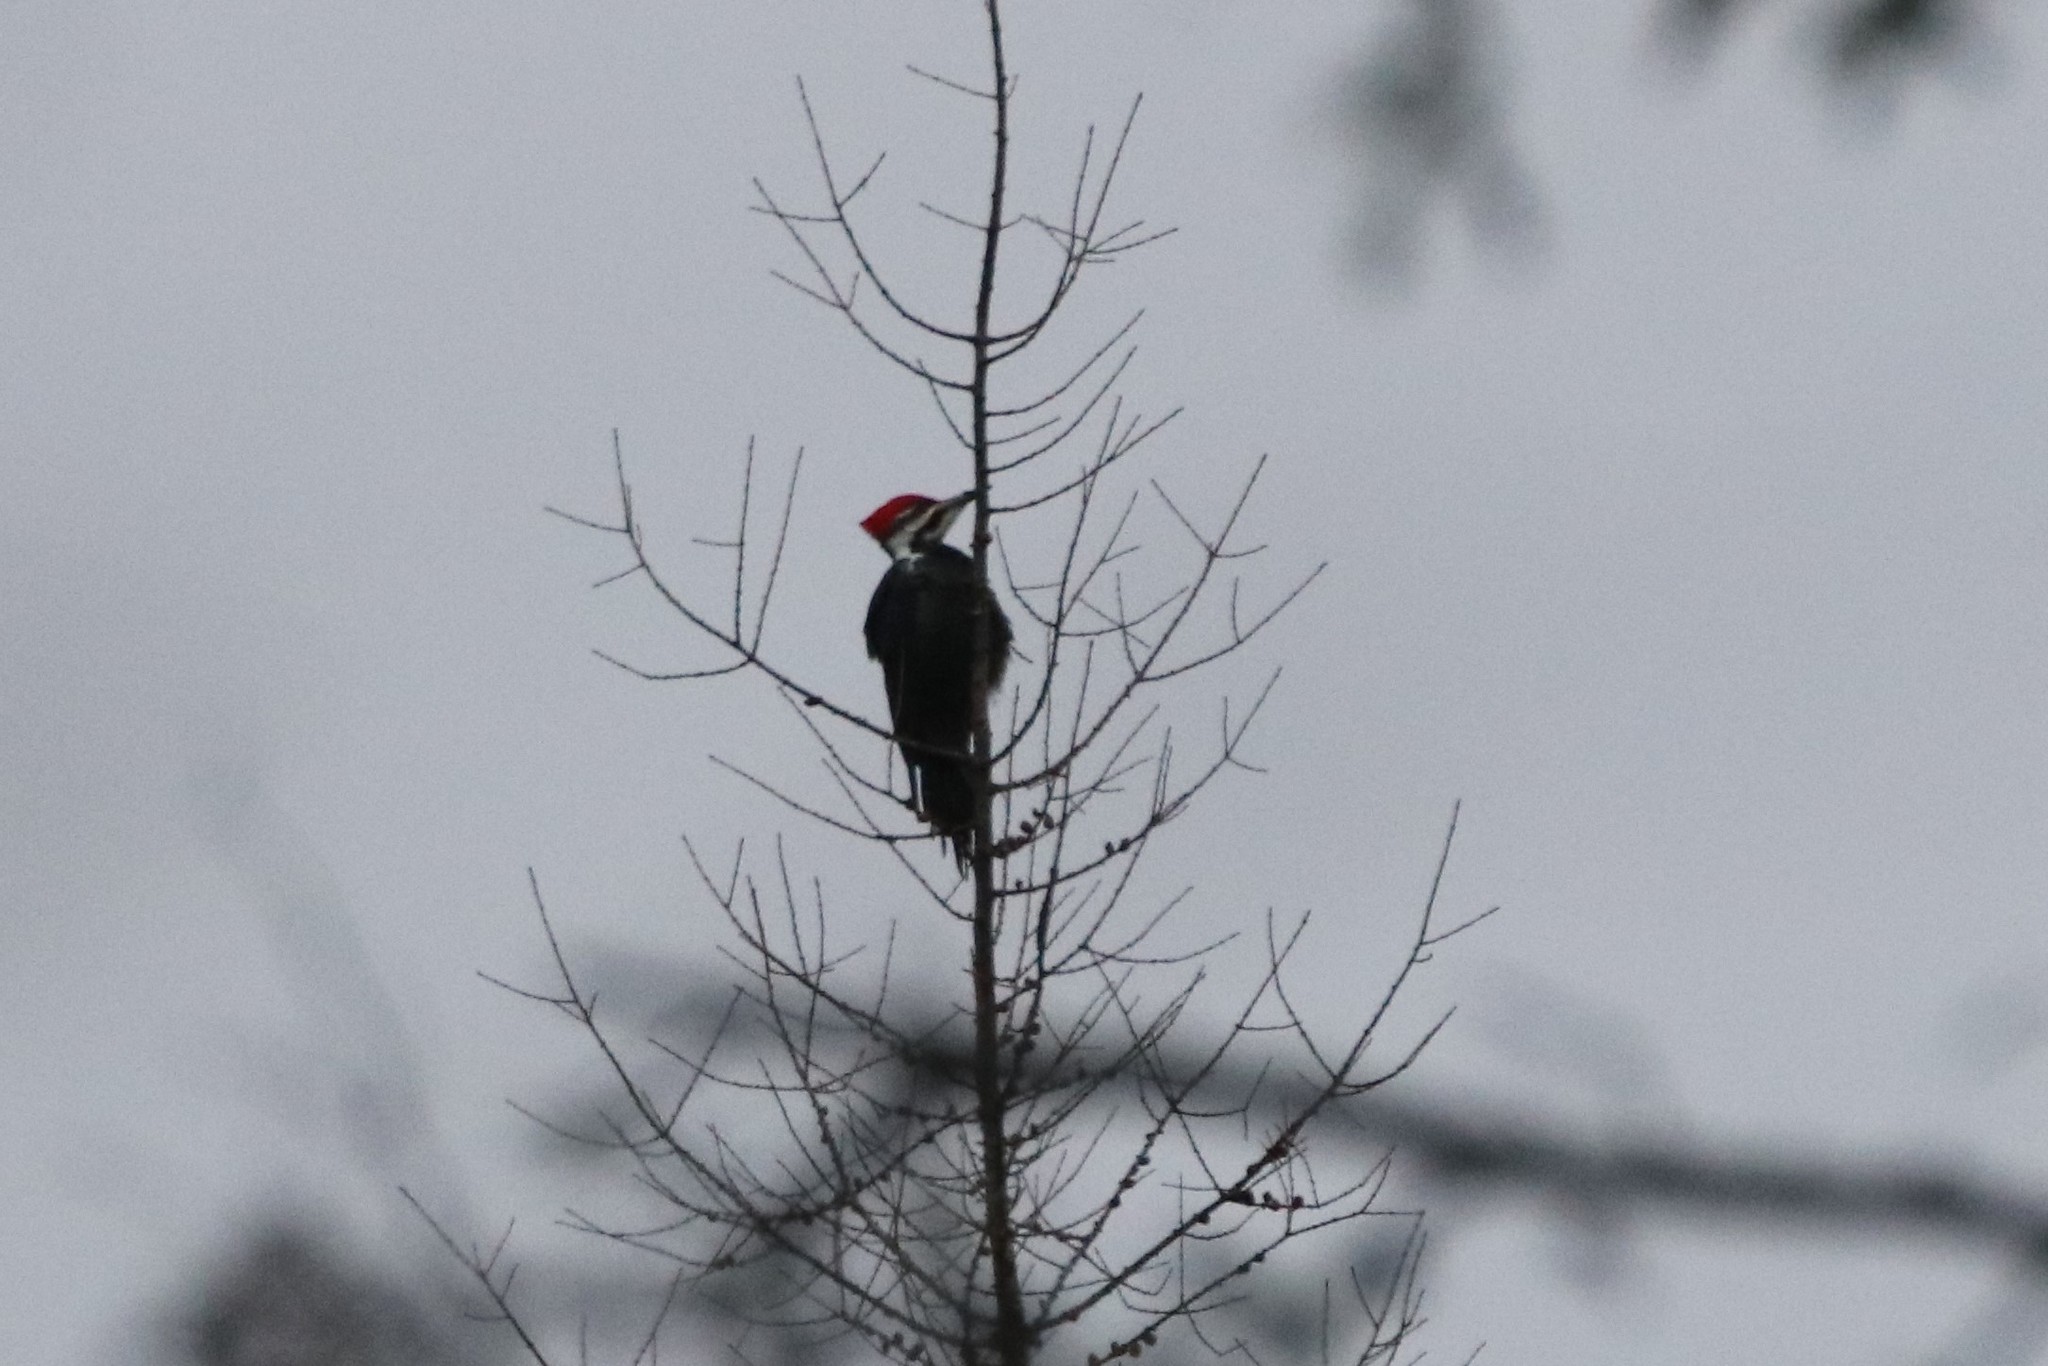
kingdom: Animalia
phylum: Chordata
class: Aves
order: Piciformes
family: Picidae
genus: Dryocopus
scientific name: Dryocopus pileatus
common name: Pileated woodpecker
